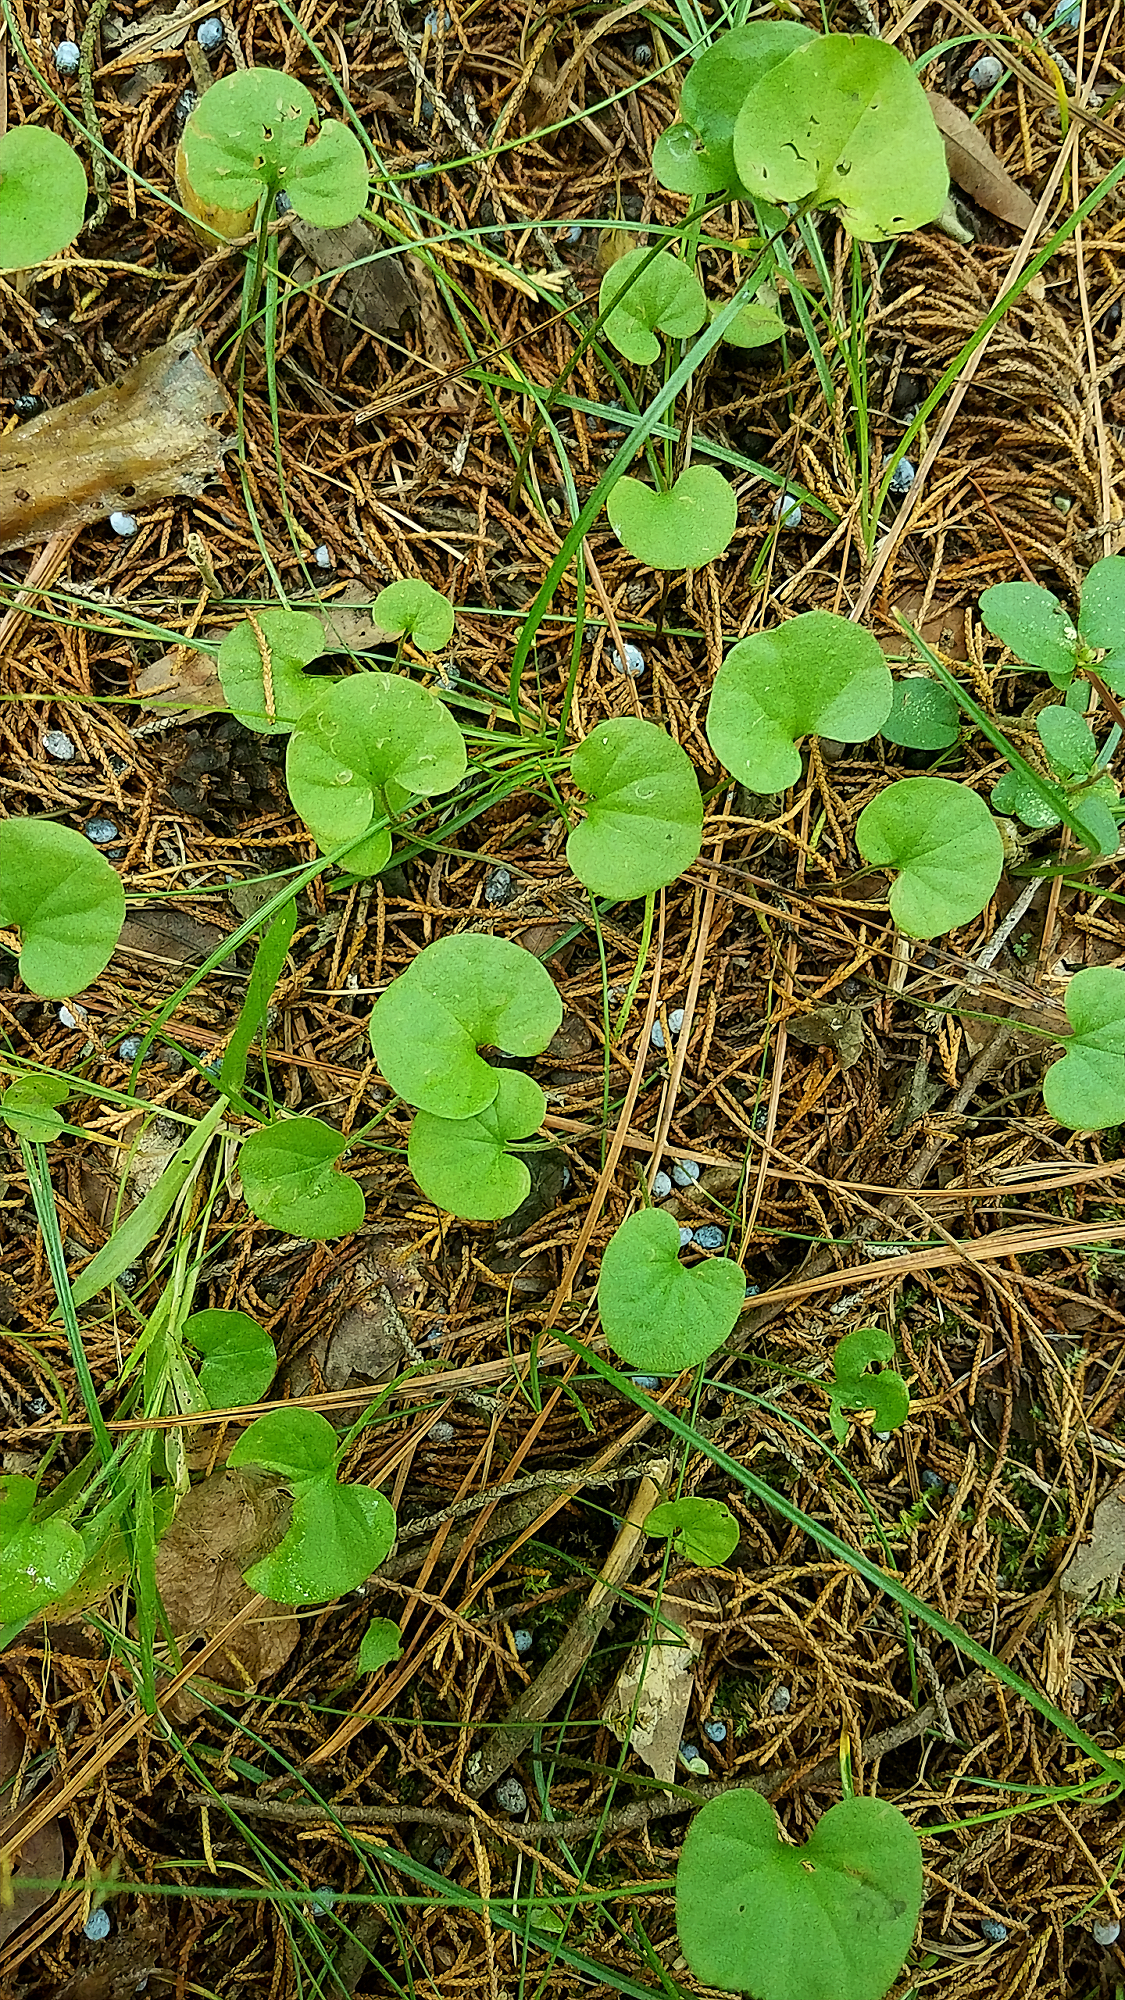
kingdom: Plantae
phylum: Tracheophyta
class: Magnoliopsida
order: Solanales
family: Convolvulaceae
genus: Dichondra
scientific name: Dichondra carolinensis
